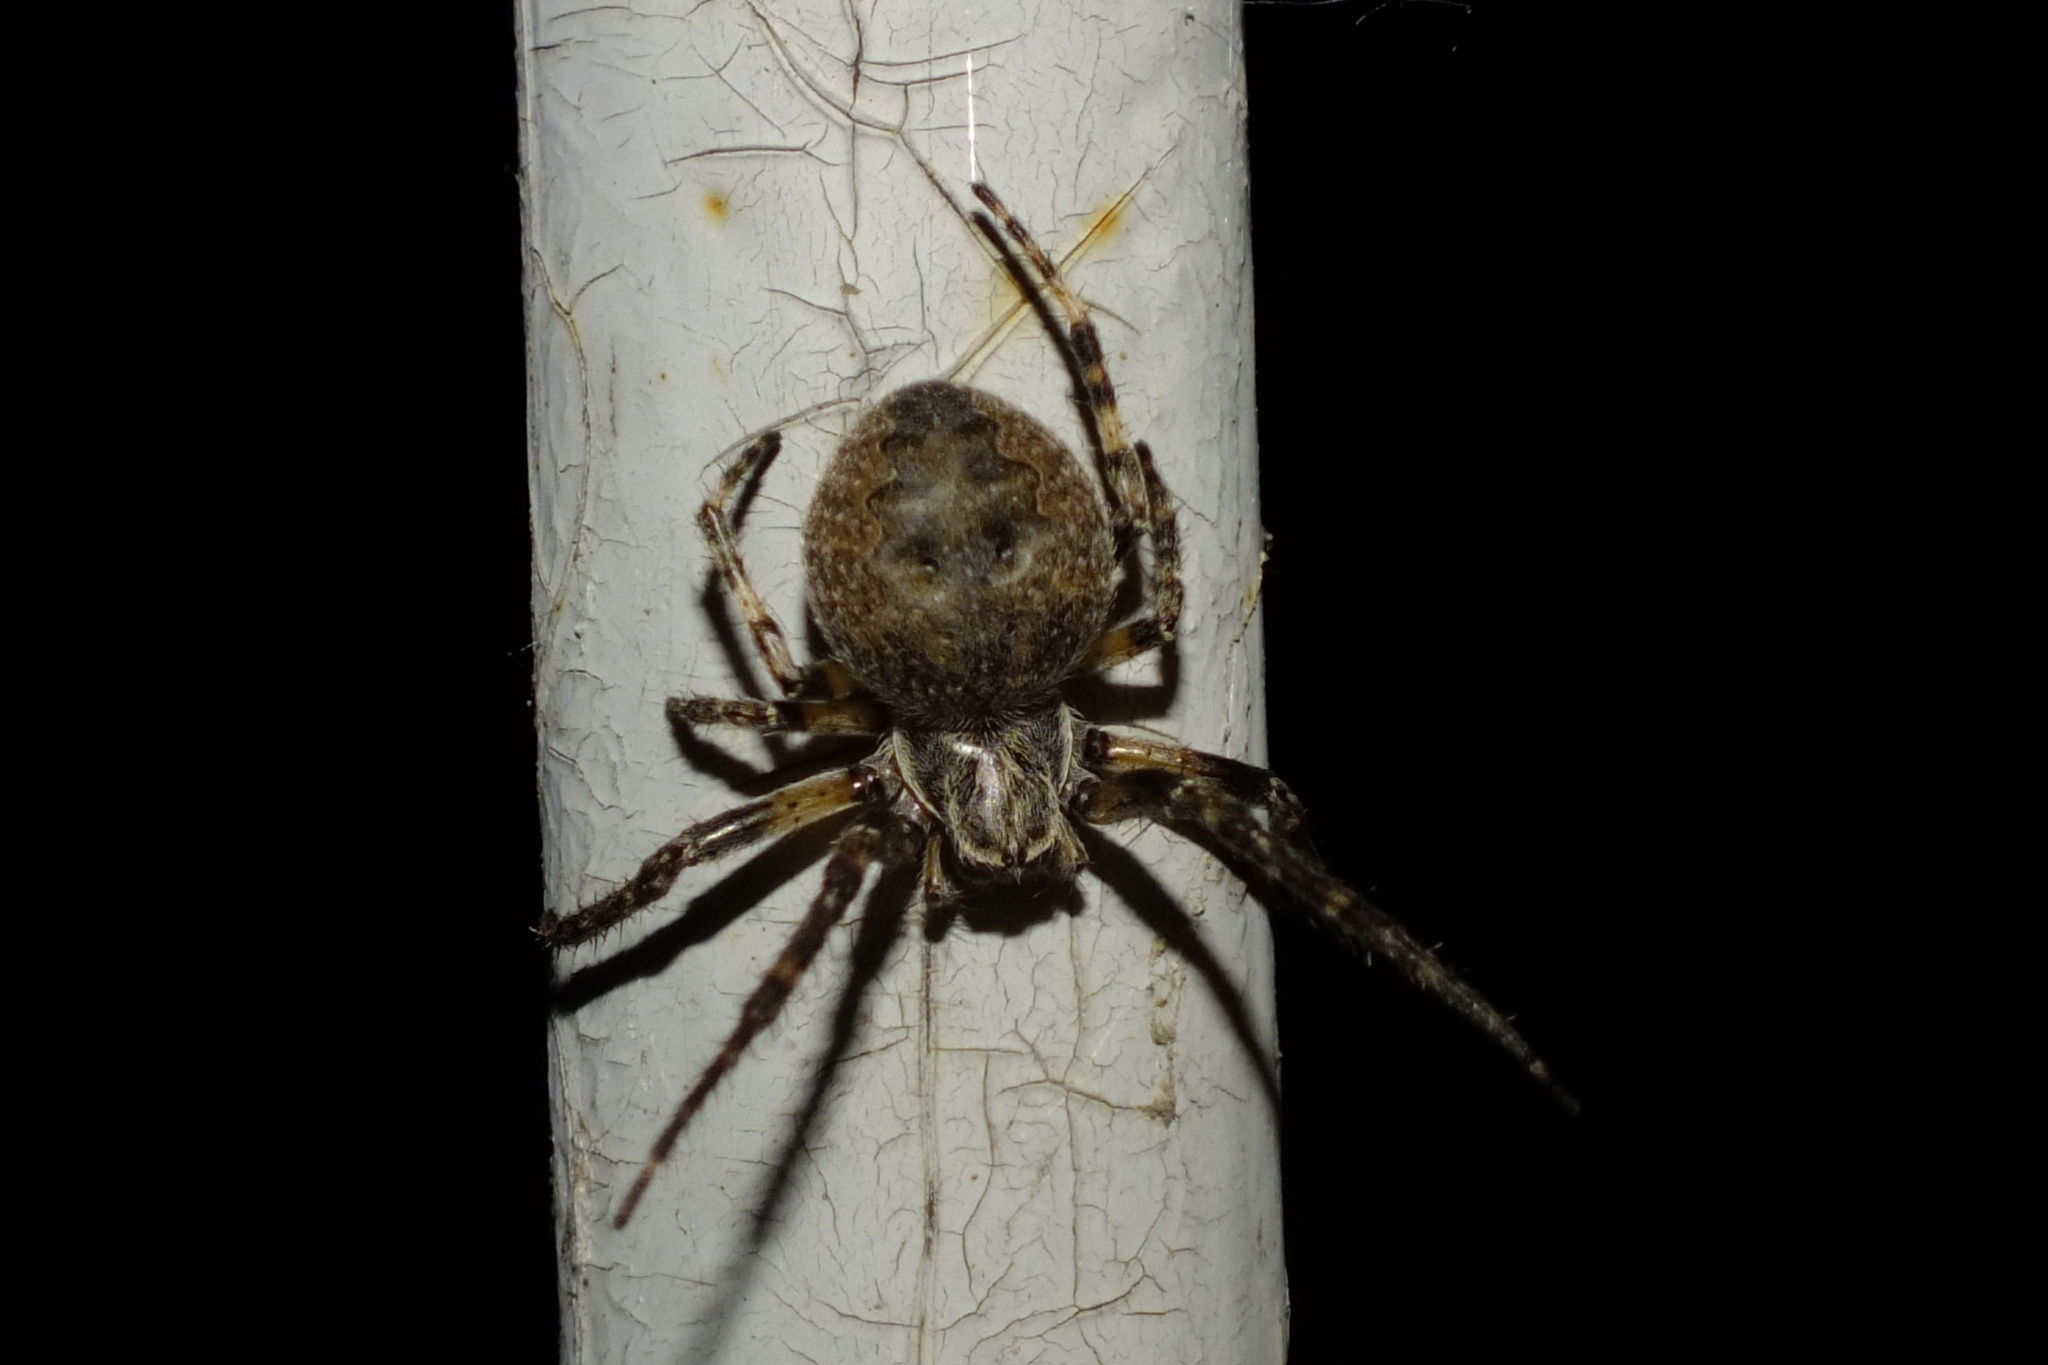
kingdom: Animalia
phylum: Arthropoda
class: Arachnida
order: Araneae
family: Araneidae
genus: Larinioides
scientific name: Larinioides ixobolus
